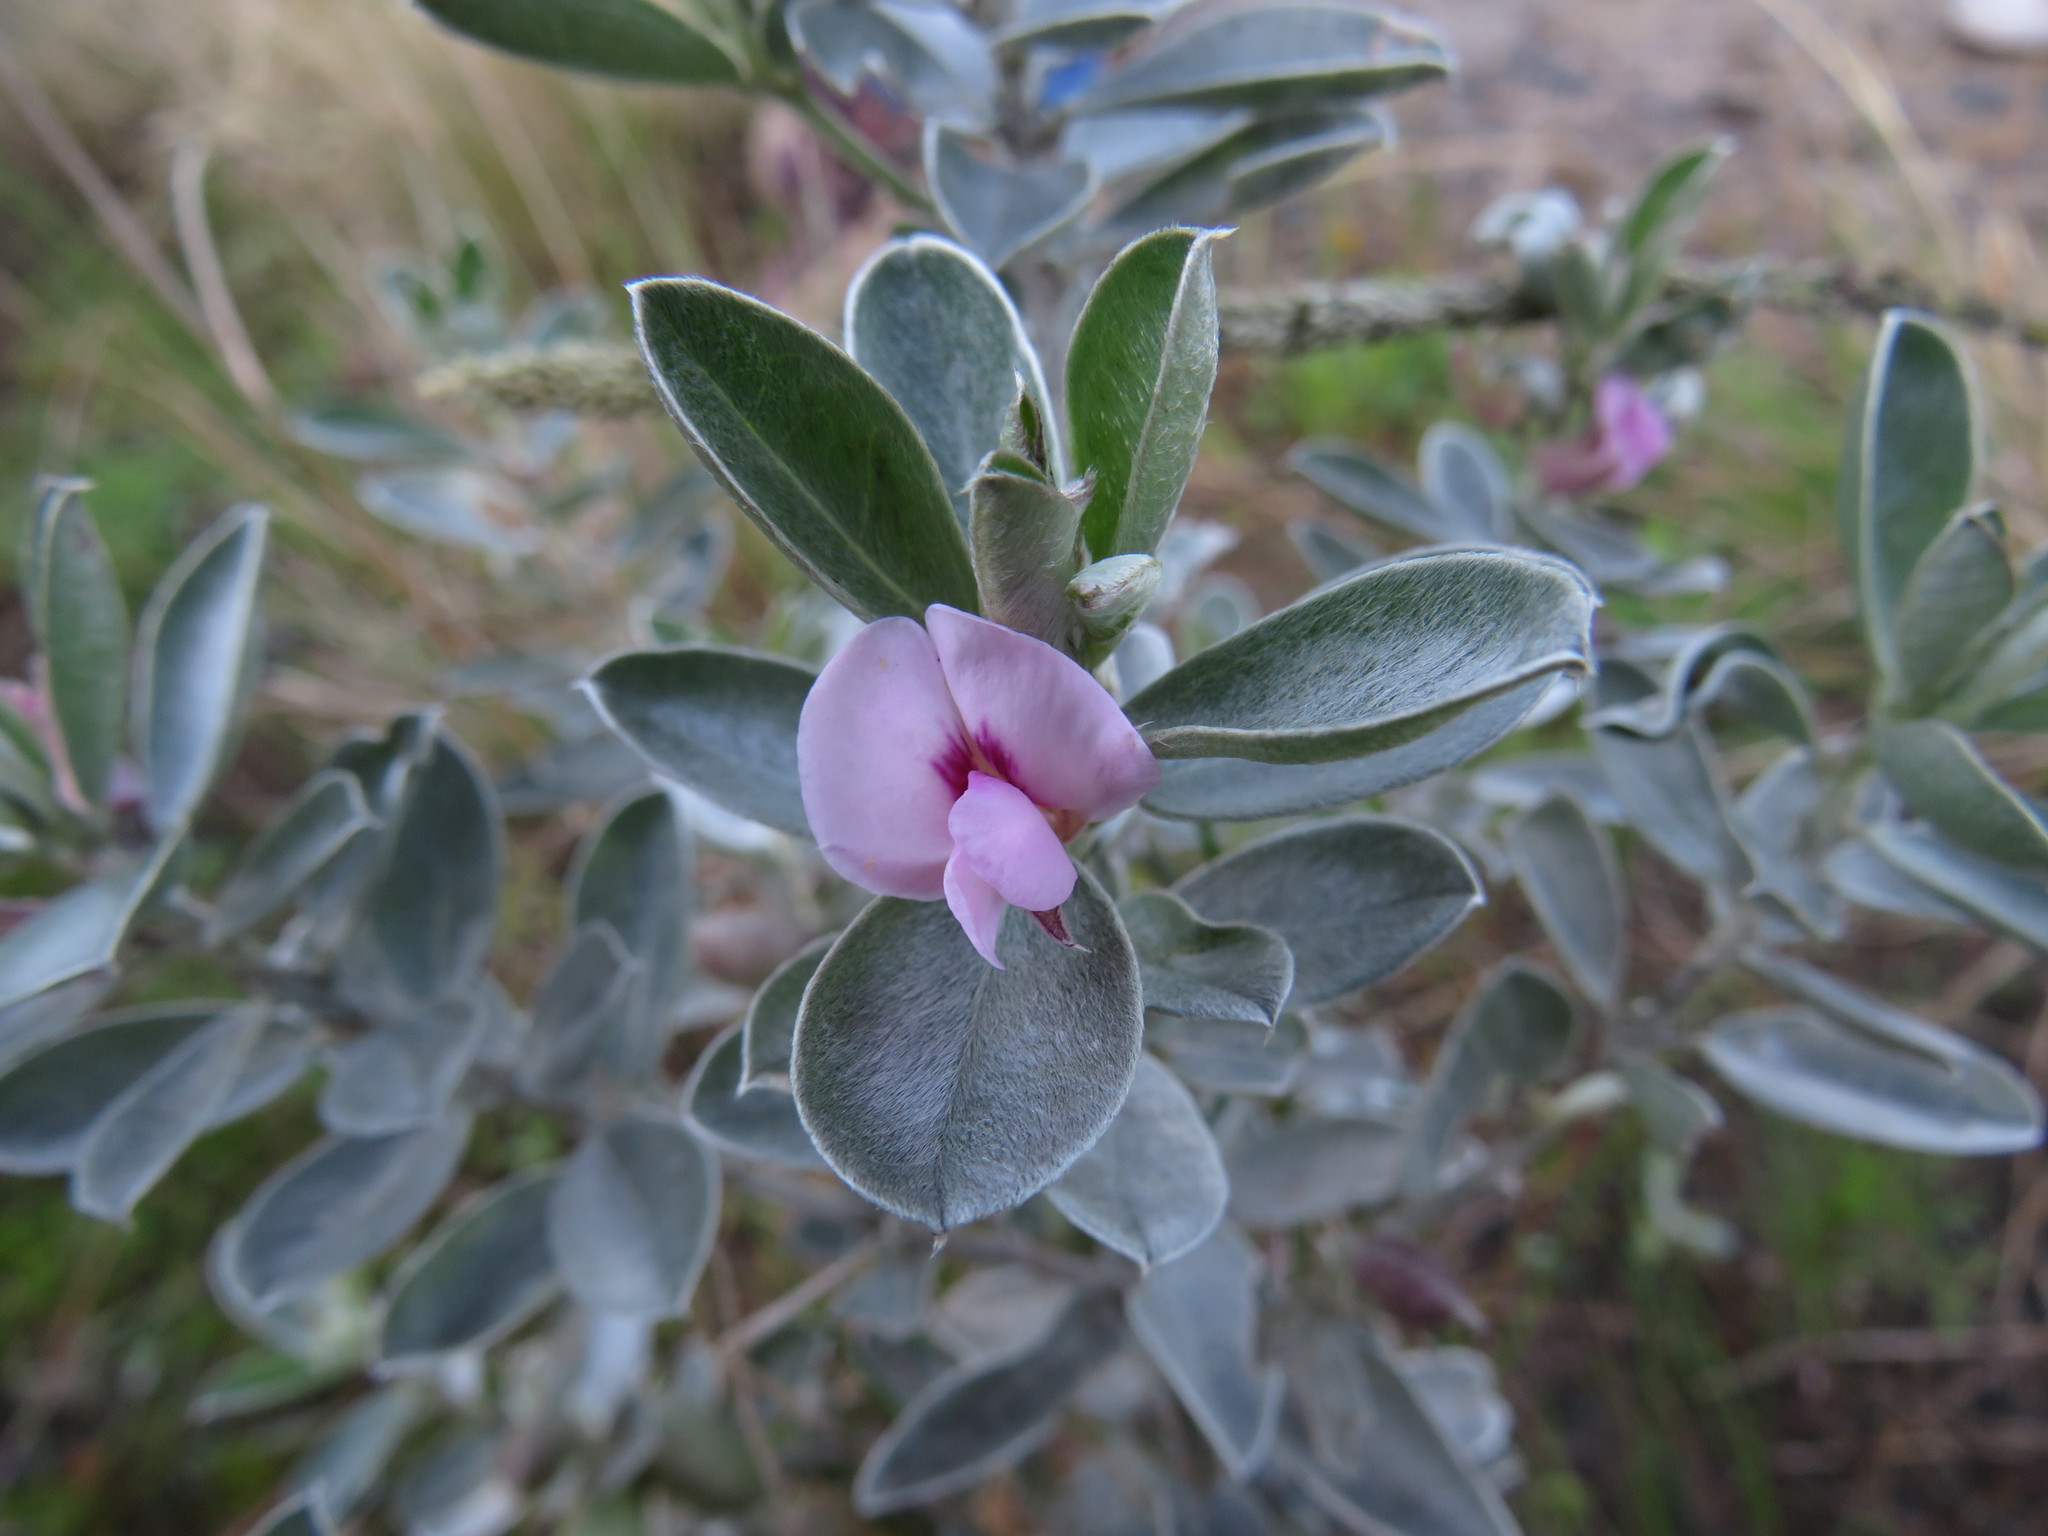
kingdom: Plantae
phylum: Tracheophyta
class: Magnoliopsida
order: Fabales
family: Fabaceae
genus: Podalyria
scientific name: Podalyria sericea
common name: Silver podalyria
